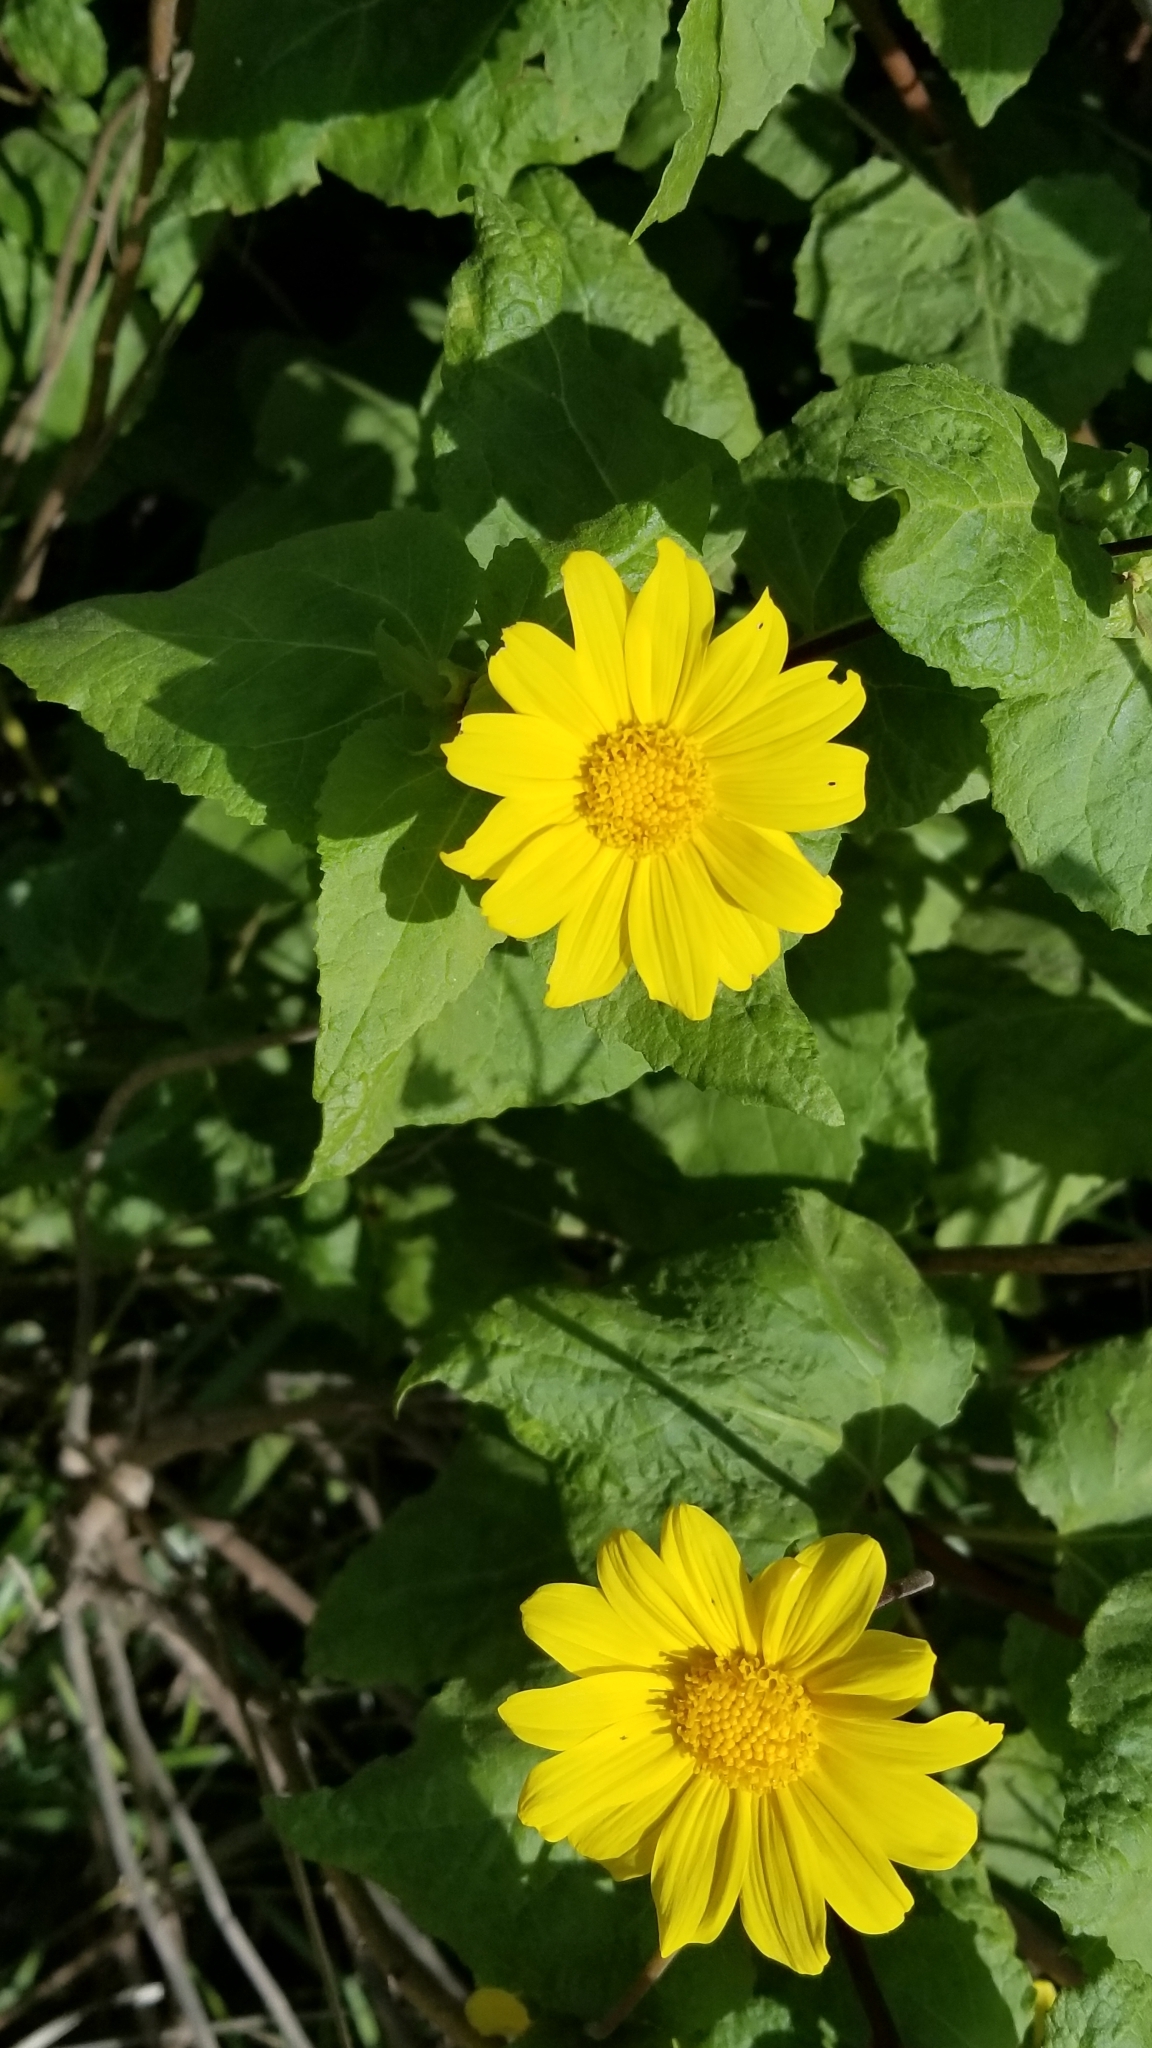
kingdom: Plantae
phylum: Tracheophyta
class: Magnoliopsida
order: Asterales
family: Asteraceae
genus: Venegasia
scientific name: Venegasia carpesioides
